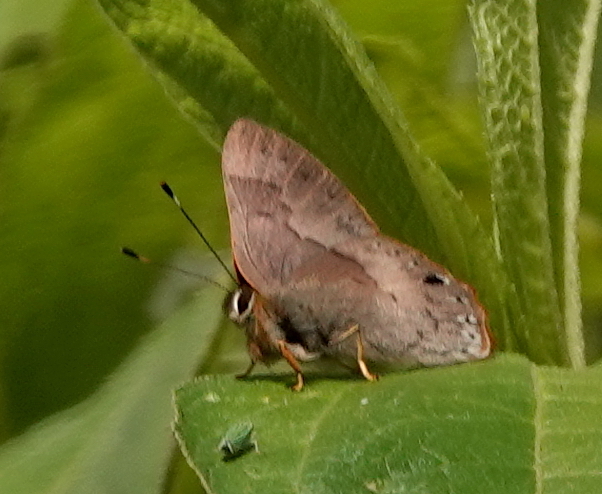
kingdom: Animalia
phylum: Arthropoda
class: Insecta
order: Lepidoptera
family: Riodinidae
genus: Methone
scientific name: Methone
